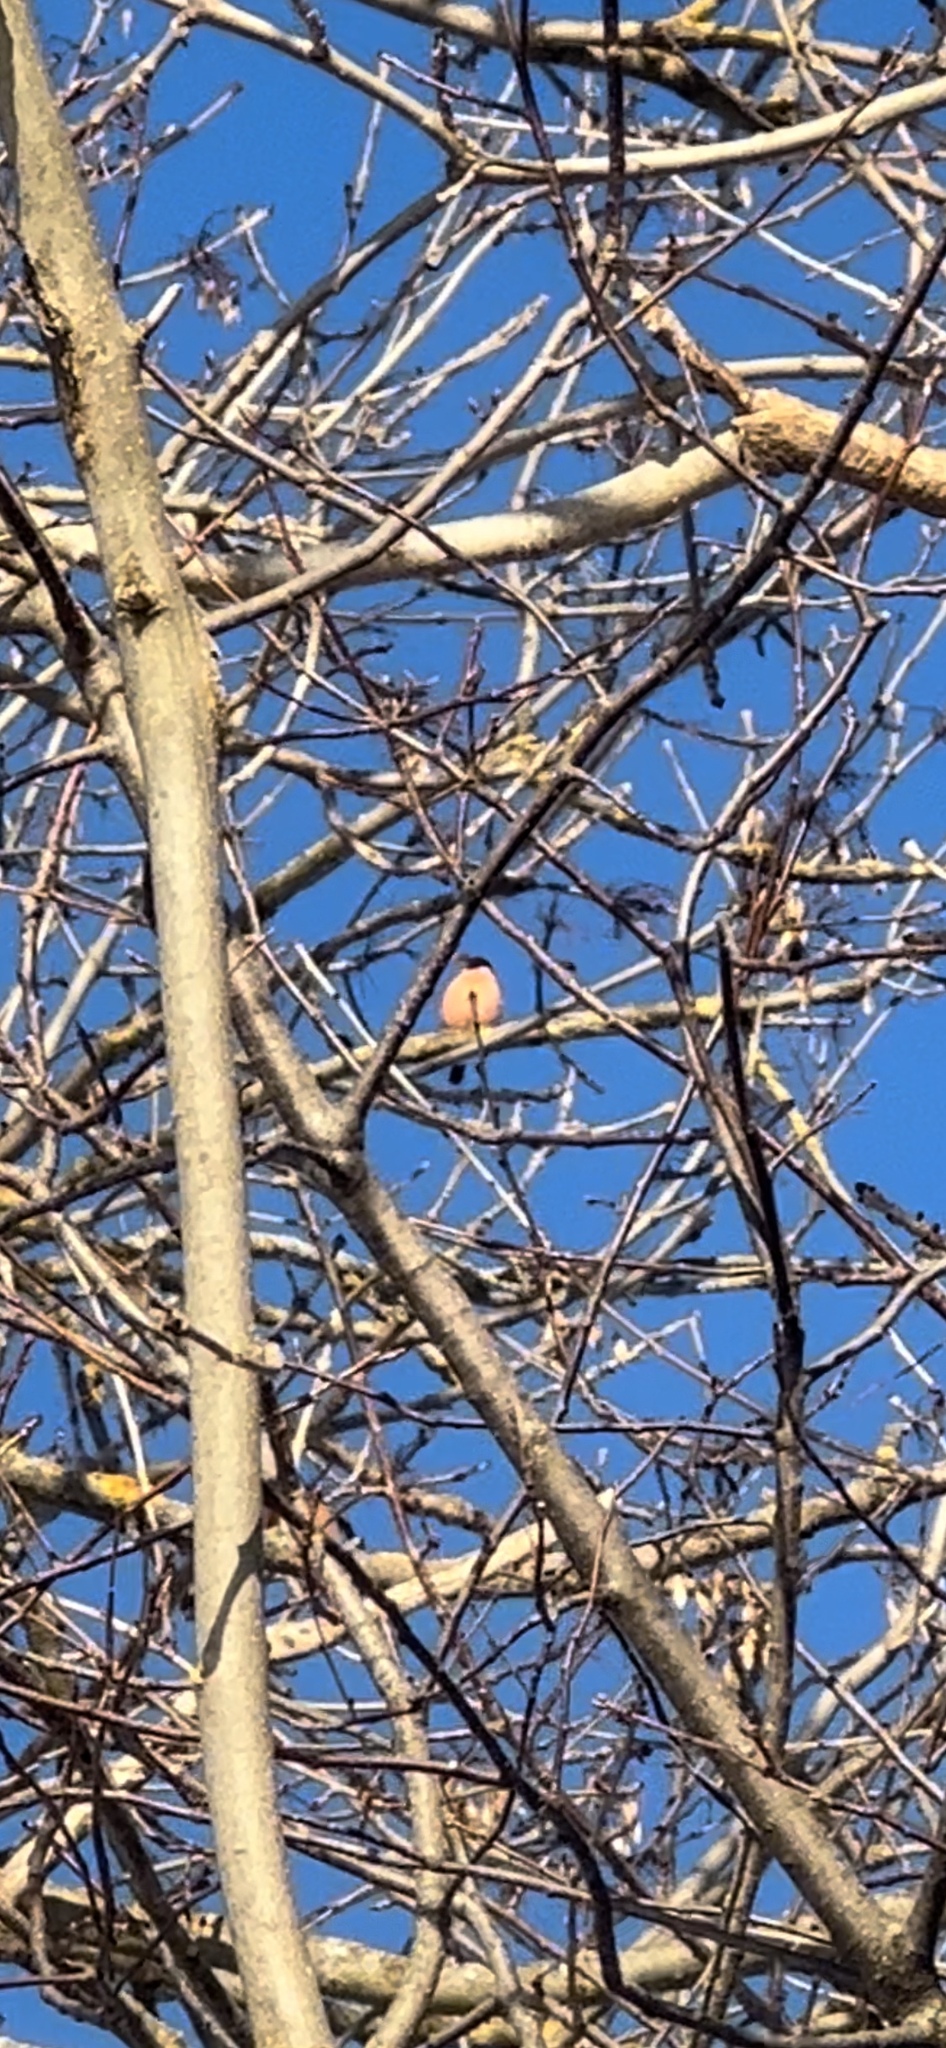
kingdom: Animalia
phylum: Chordata
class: Aves
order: Passeriformes
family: Fringillidae
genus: Pyrrhula
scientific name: Pyrrhula pyrrhula
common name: Eurasian bullfinch
